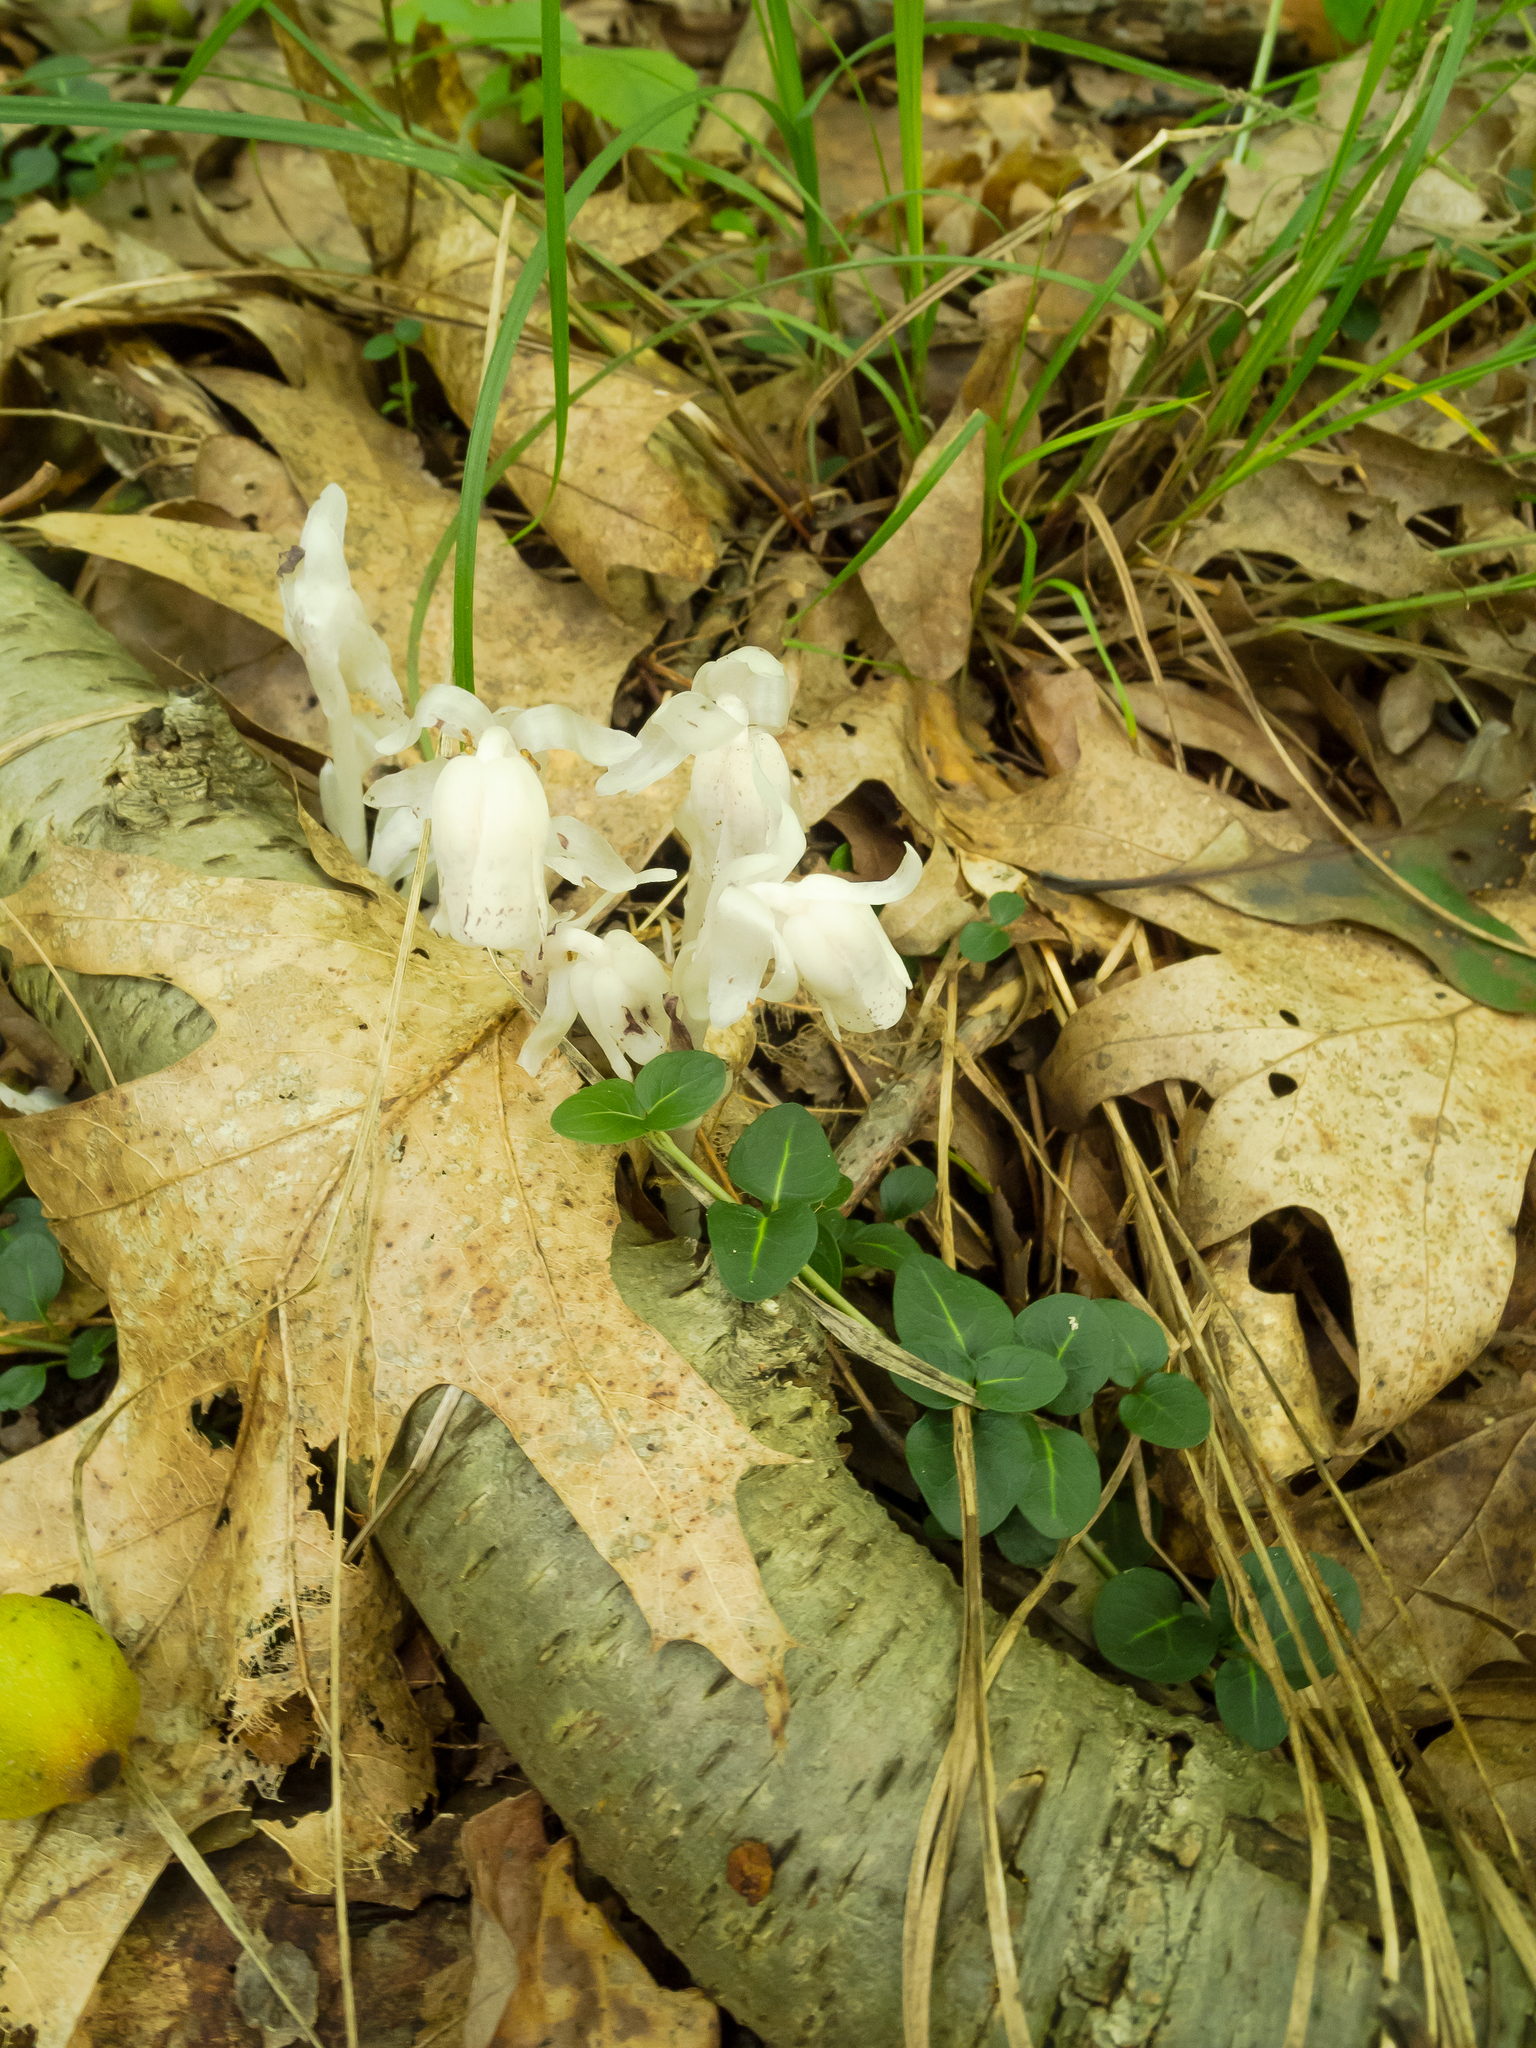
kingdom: Plantae
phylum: Tracheophyta
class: Magnoliopsida
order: Ericales
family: Ericaceae
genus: Monotropa
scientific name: Monotropa uniflora
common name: Convulsion root
